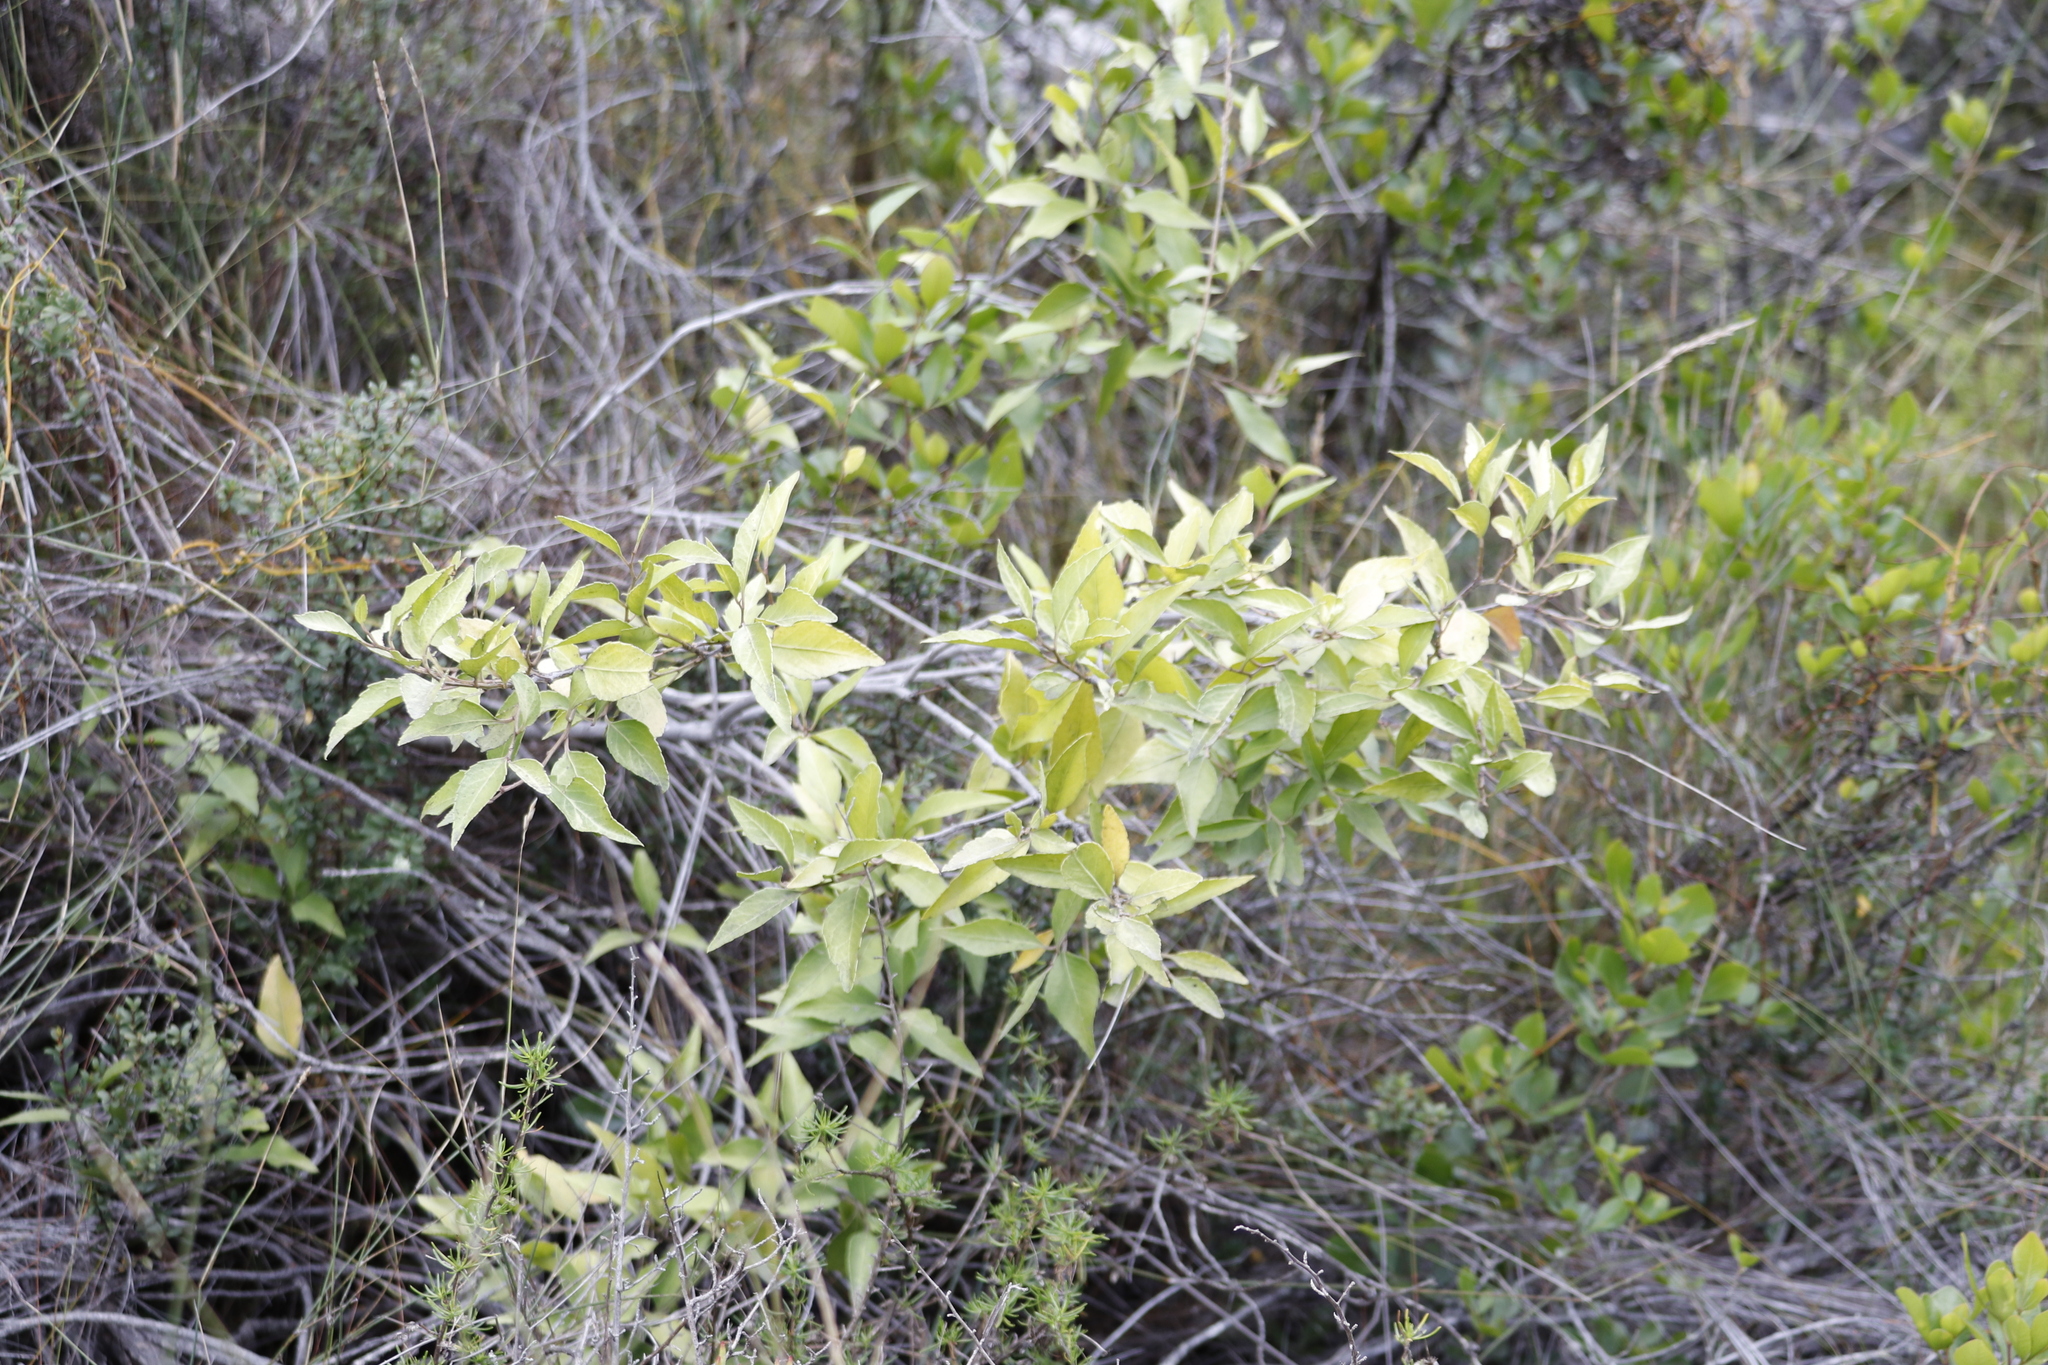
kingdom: Plantae
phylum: Tracheophyta
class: Magnoliopsida
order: Celastrales
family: Celastraceae
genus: Gymnosporia
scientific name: Gymnosporia acuminata
